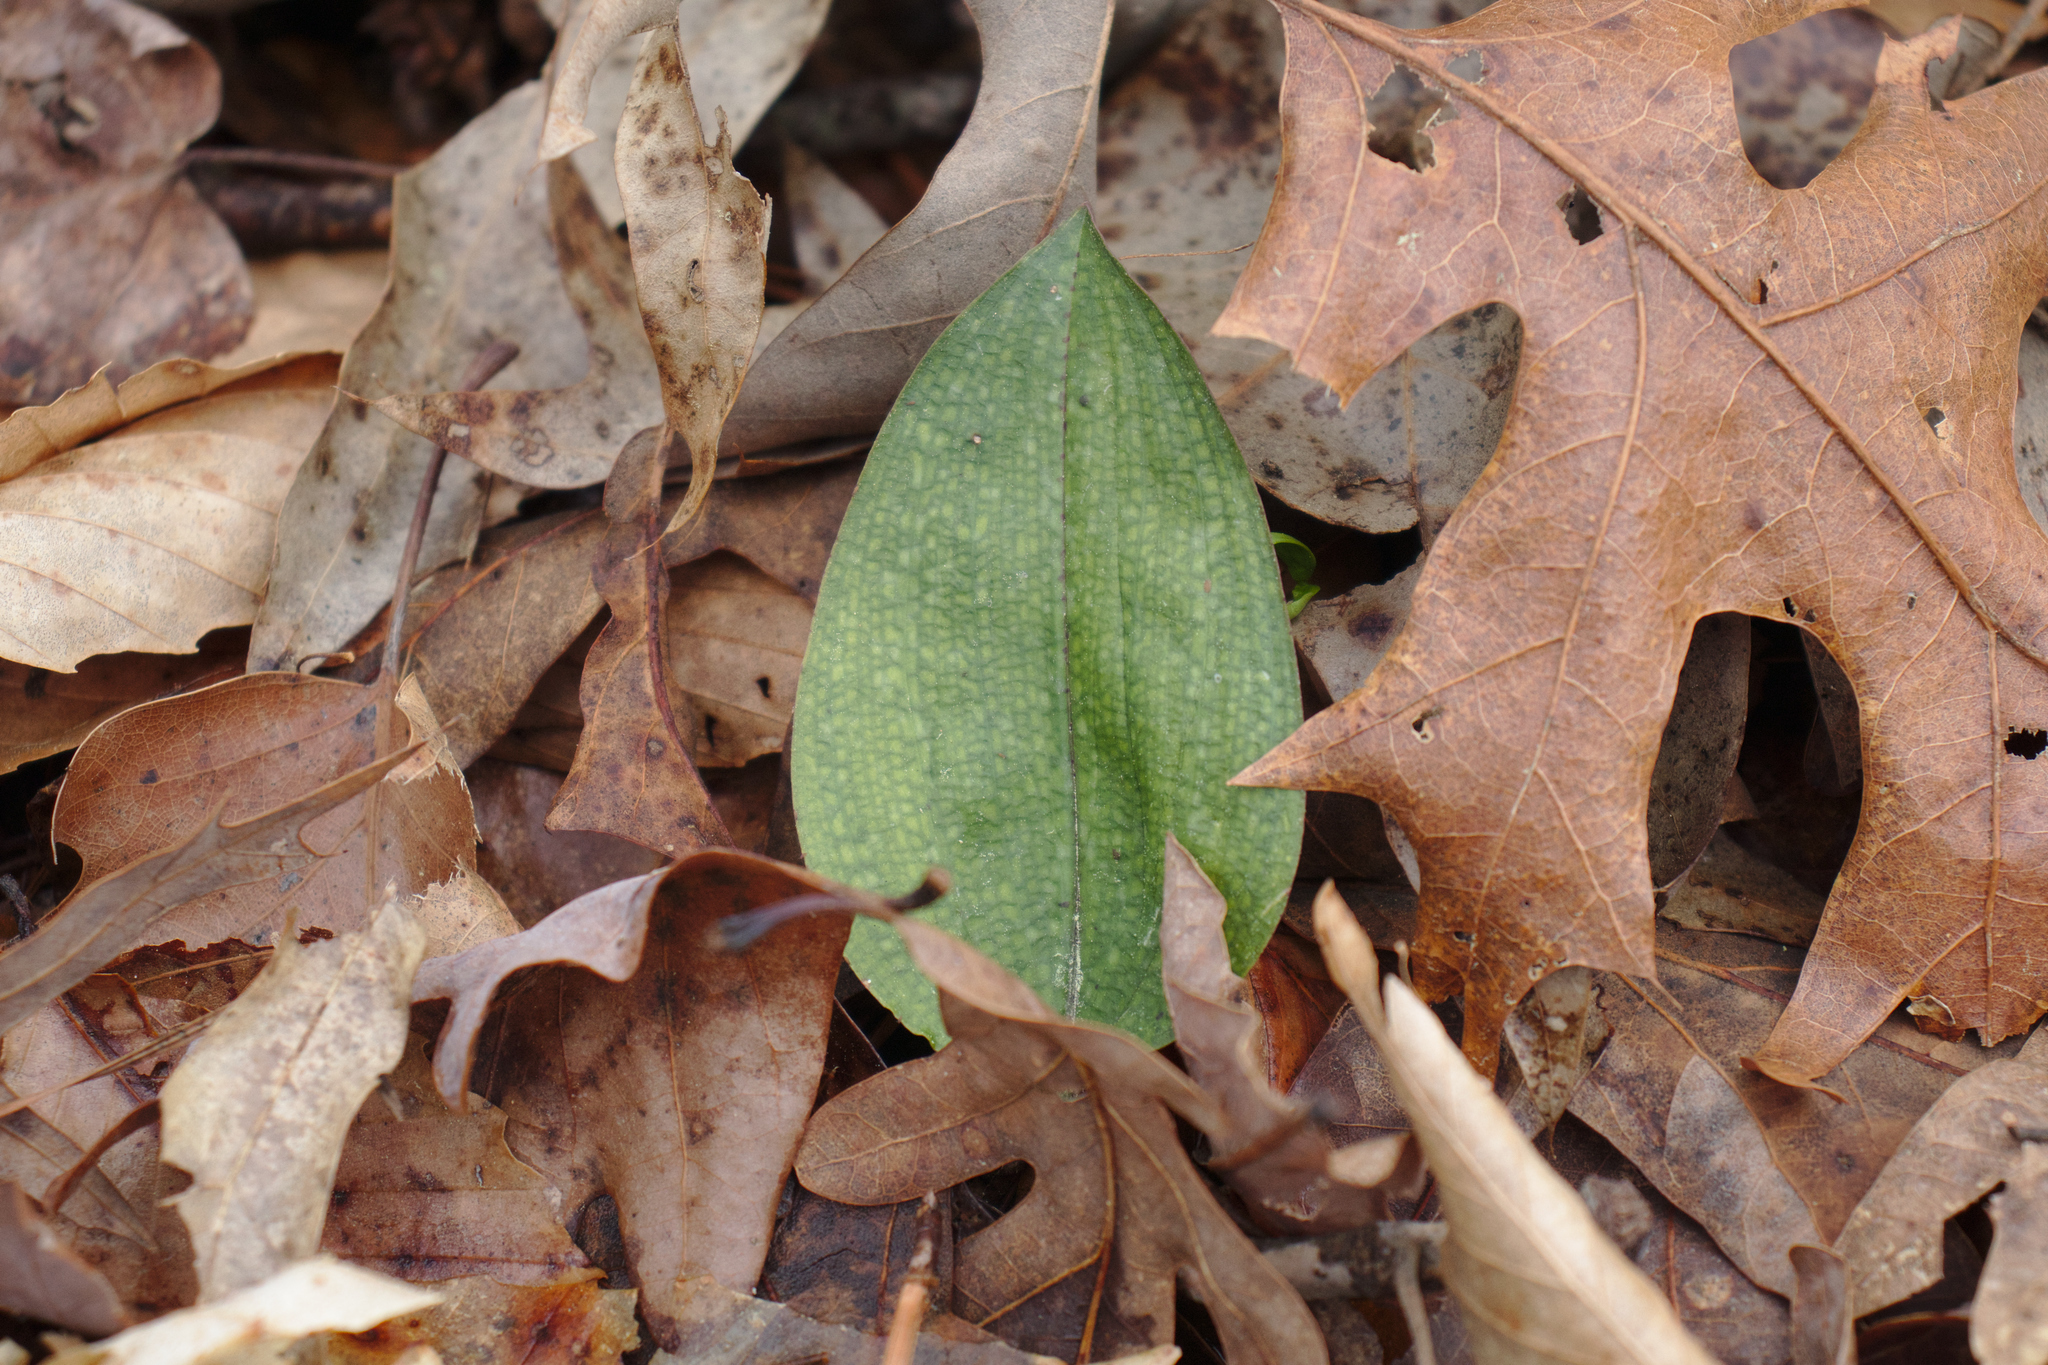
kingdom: Plantae
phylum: Tracheophyta
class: Liliopsida
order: Asparagales
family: Orchidaceae
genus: Tipularia
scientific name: Tipularia discolor
